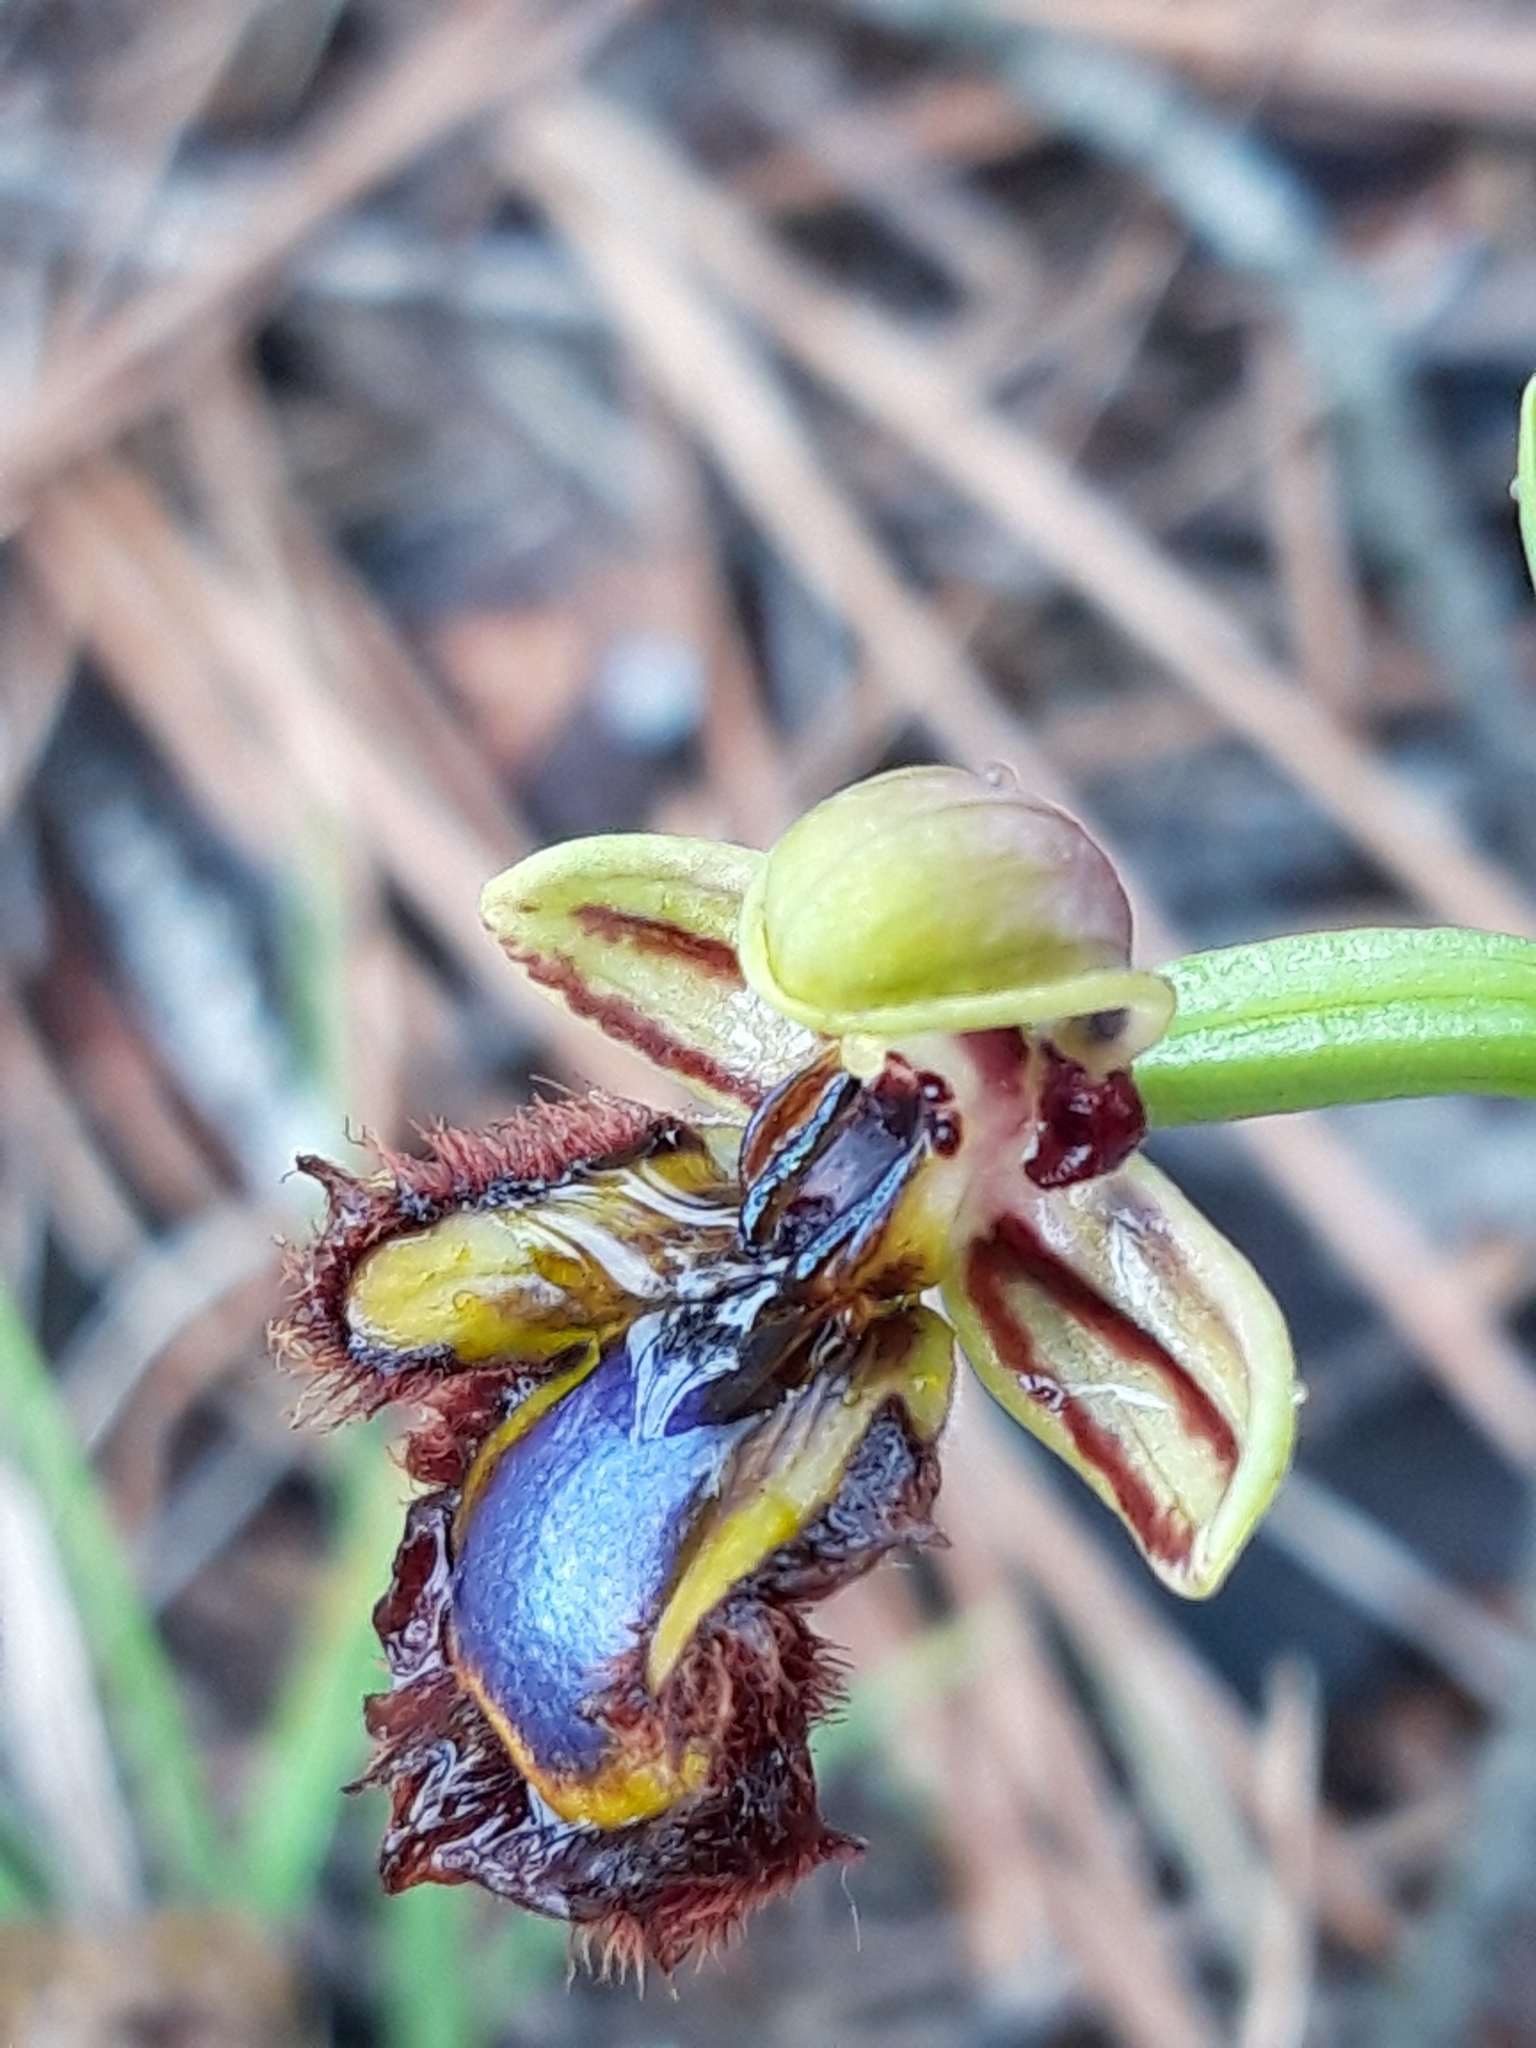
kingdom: Plantae
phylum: Tracheophyta
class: Liliopsida
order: Asparagales
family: Orchidaceae
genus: Ophrys
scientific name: Ophrys speculum
